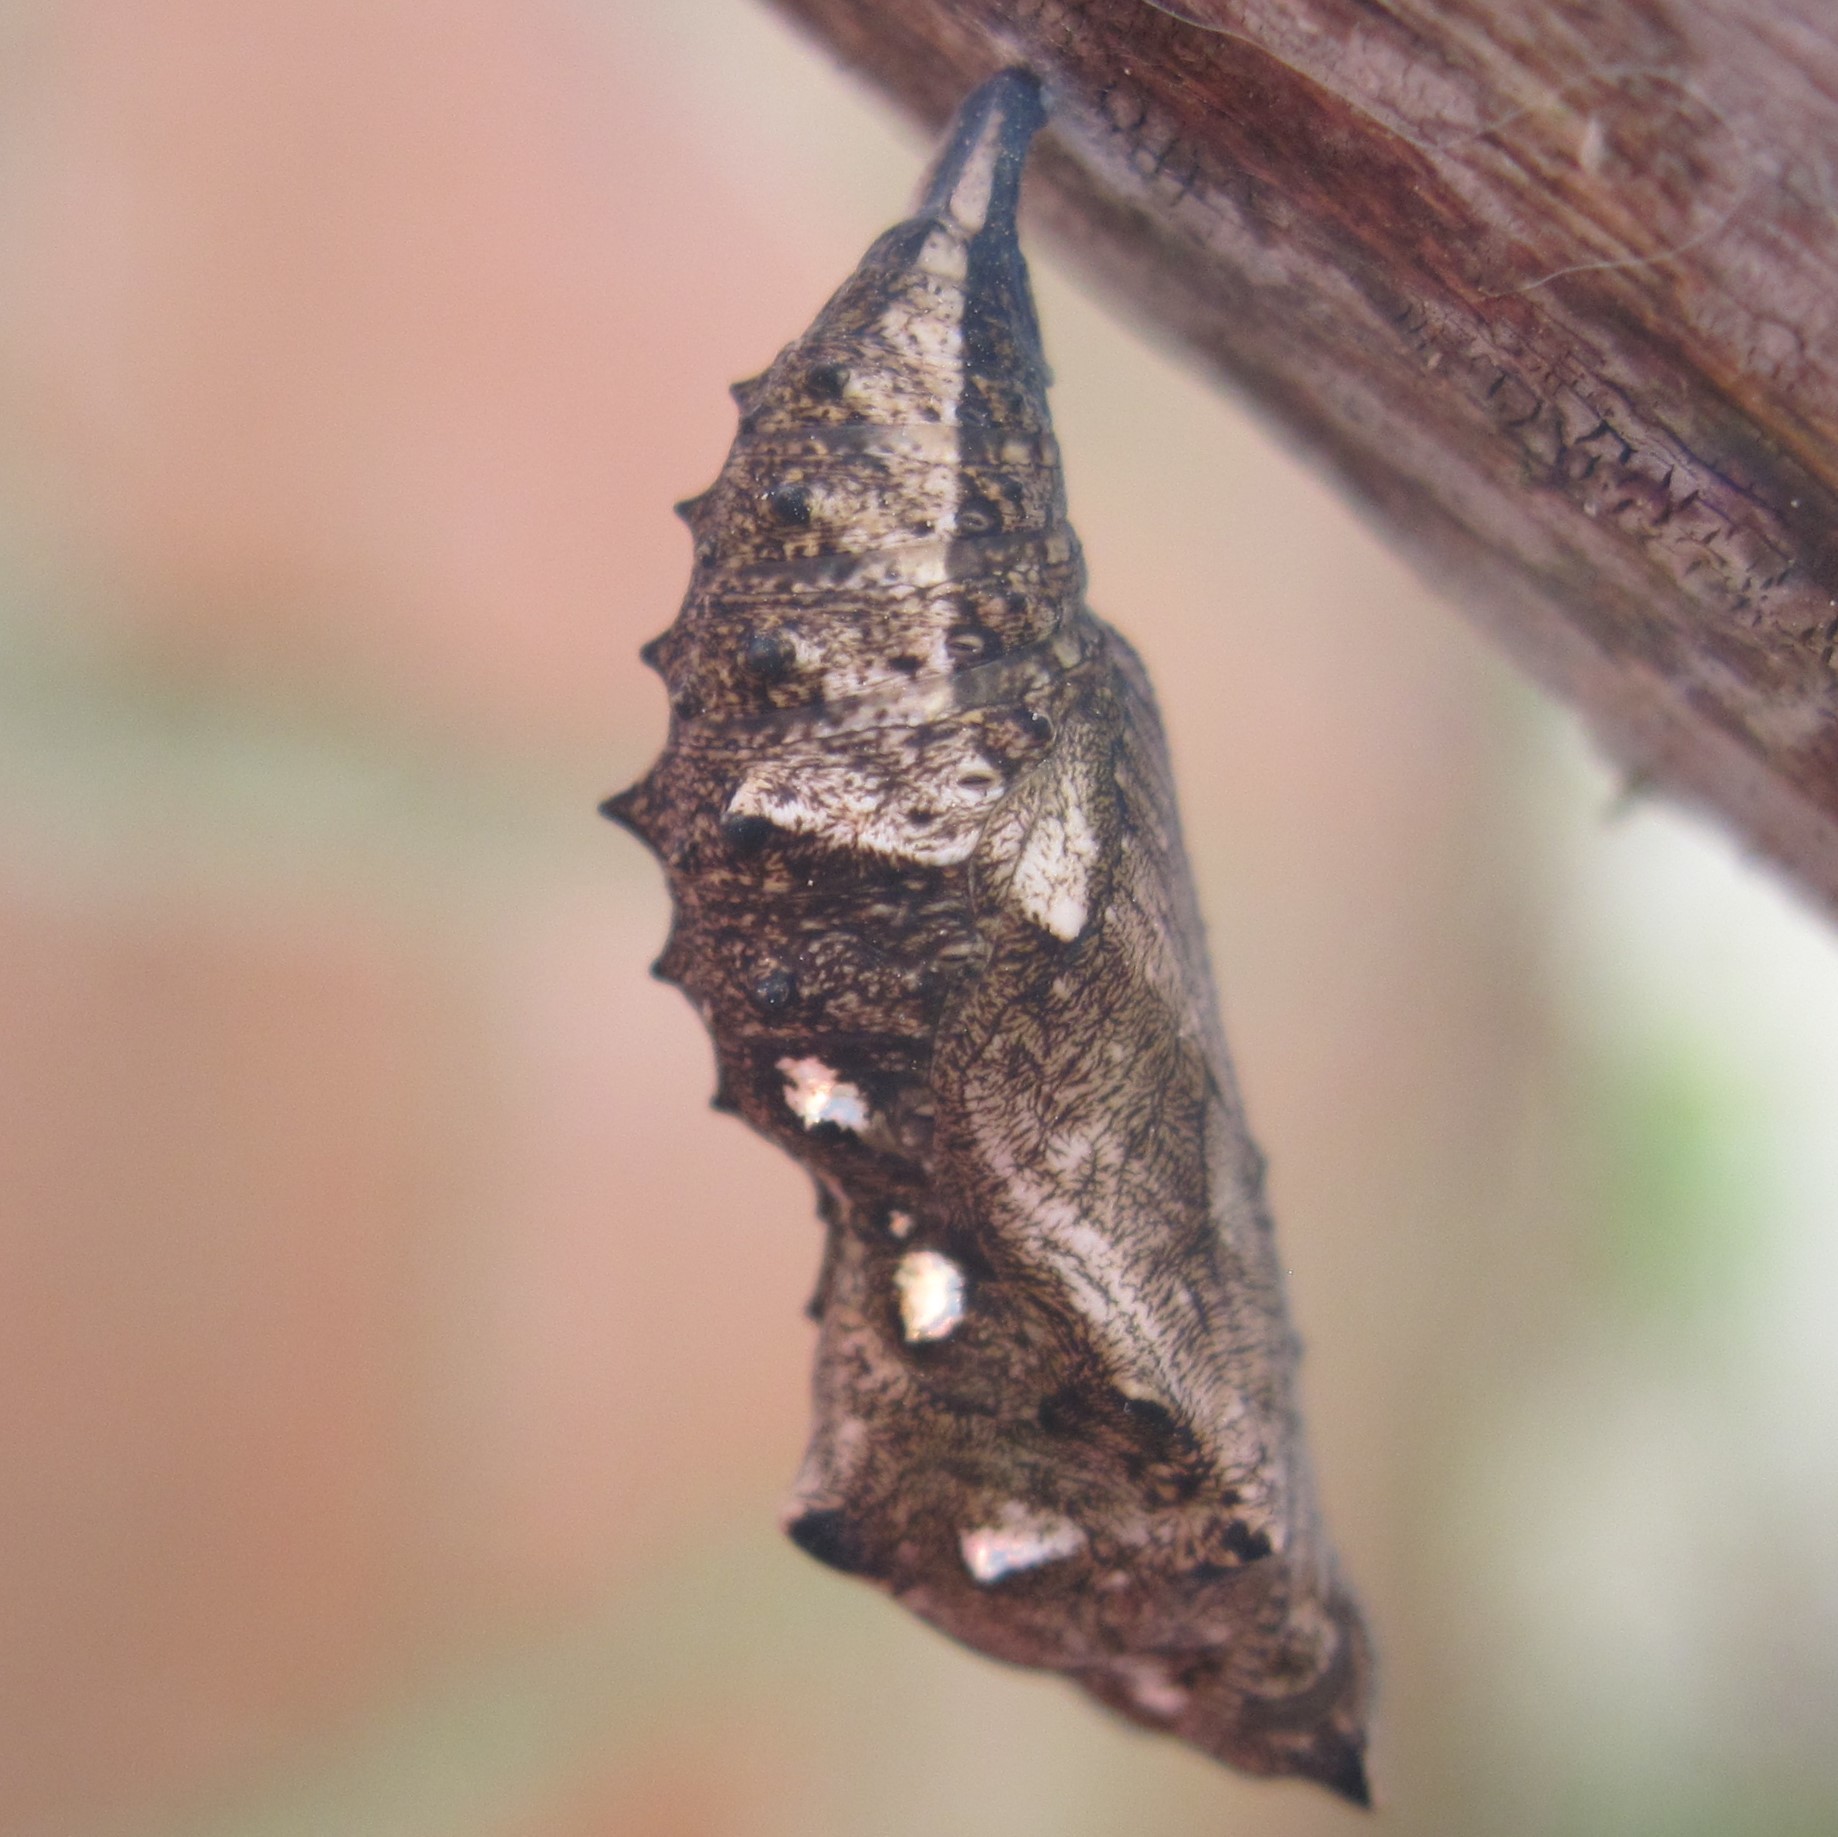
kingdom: Animalia
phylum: Arthropoda
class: Insecta
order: Lepidoptera
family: Nymphalidae
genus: Vanessa
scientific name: Vanessa itea
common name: Yellow admiral
